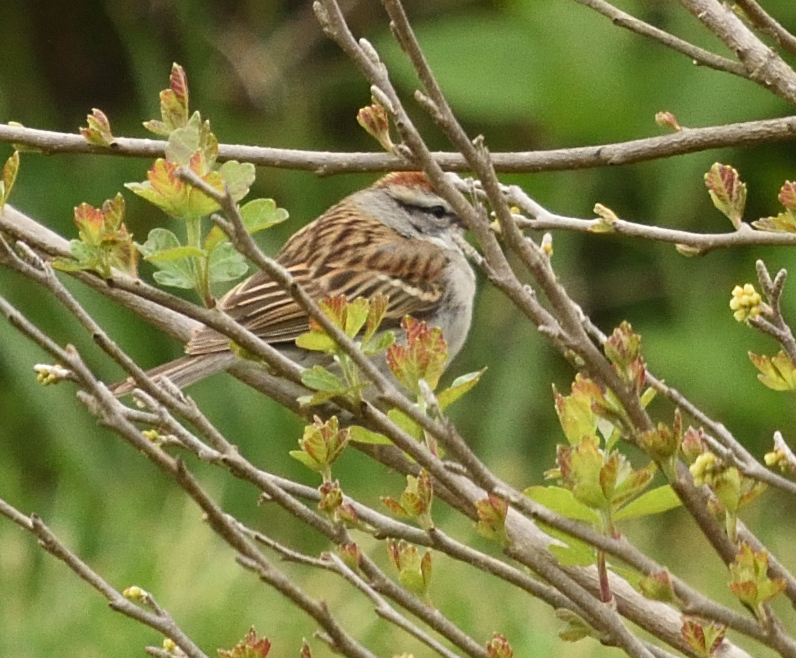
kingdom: Animalia
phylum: Chordata
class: Aves
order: Passeriformes
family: Passerellidae
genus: Spizella
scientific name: Spizella passerina
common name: Chipping sparrow
